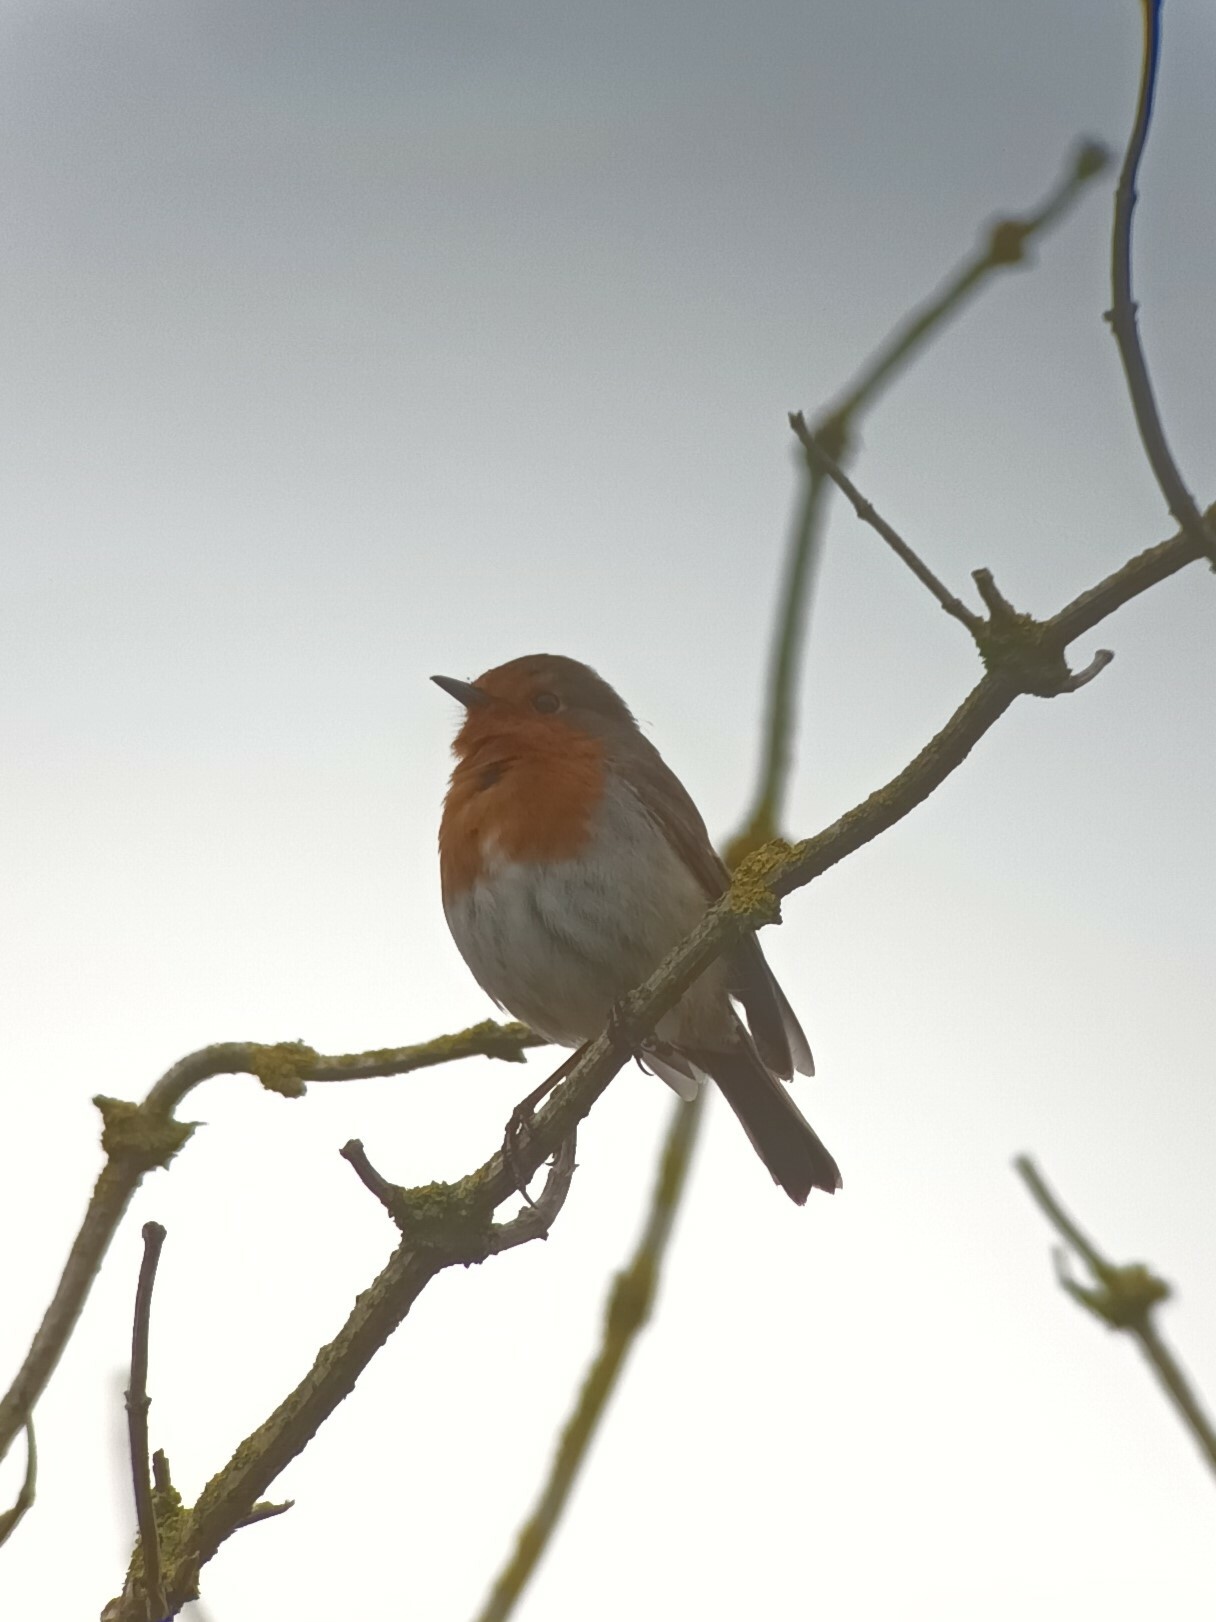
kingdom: Animalia
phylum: Chordata
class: Aves
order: Passeriformes
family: Muscicapidae
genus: Erithacus
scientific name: Erithacus rubecula
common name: European robin
